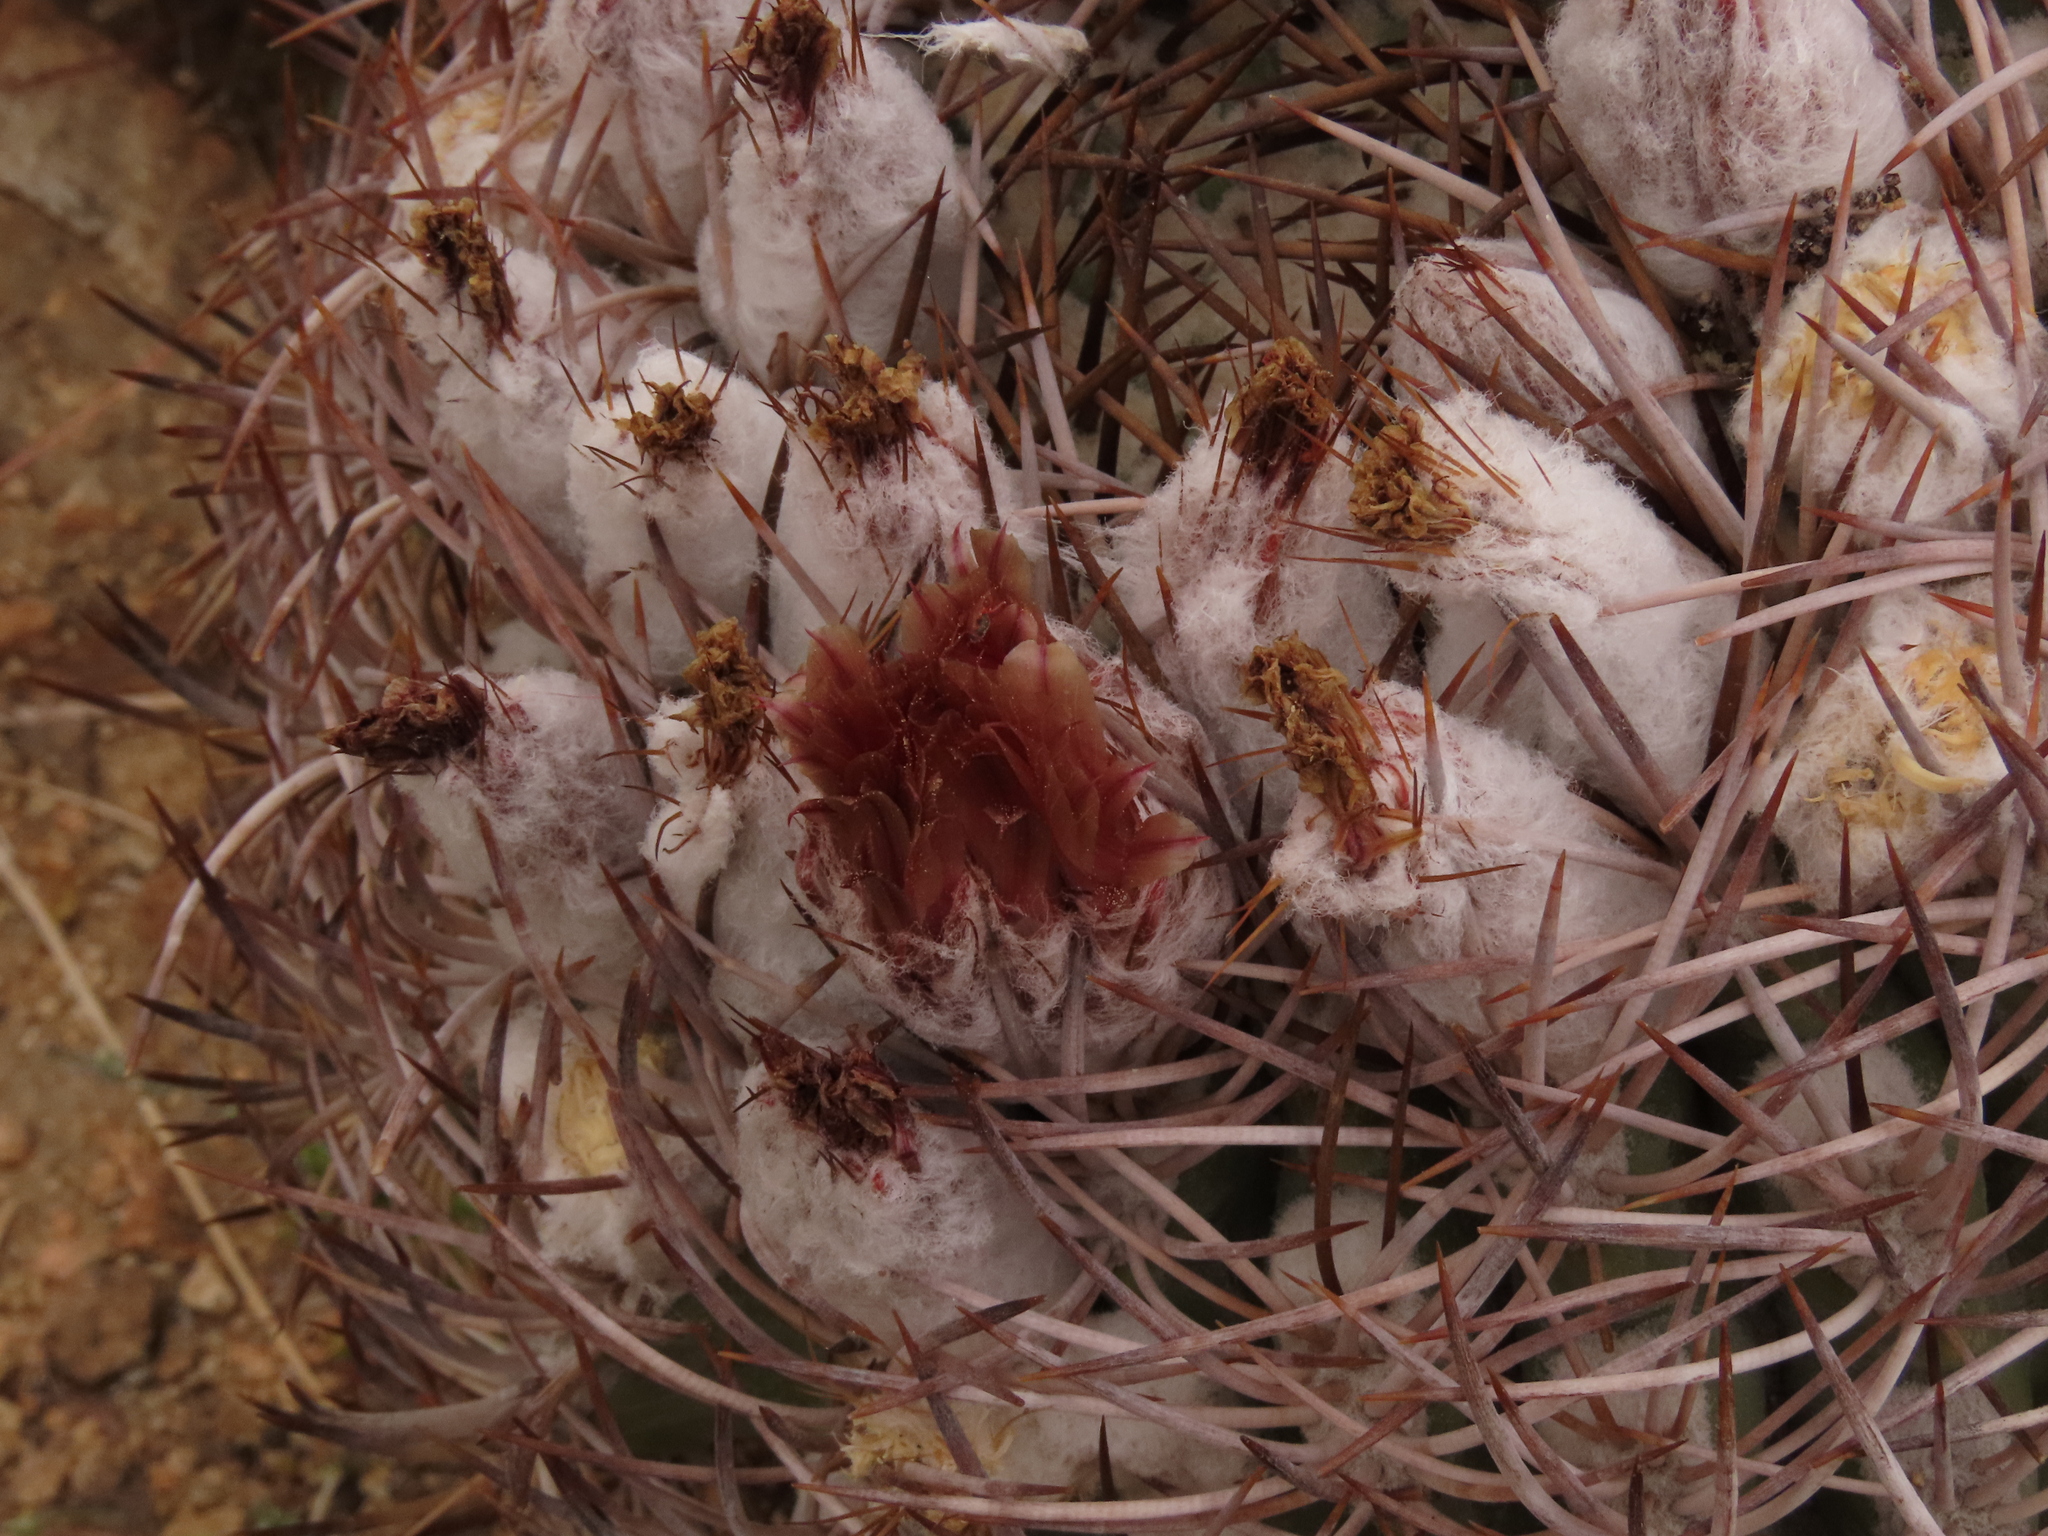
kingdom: Plantae
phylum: Tracheophyta
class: Magnoliopsida
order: Caryophyllales
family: Cactaceae
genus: Eriosyce
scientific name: Eriosyce aurata
